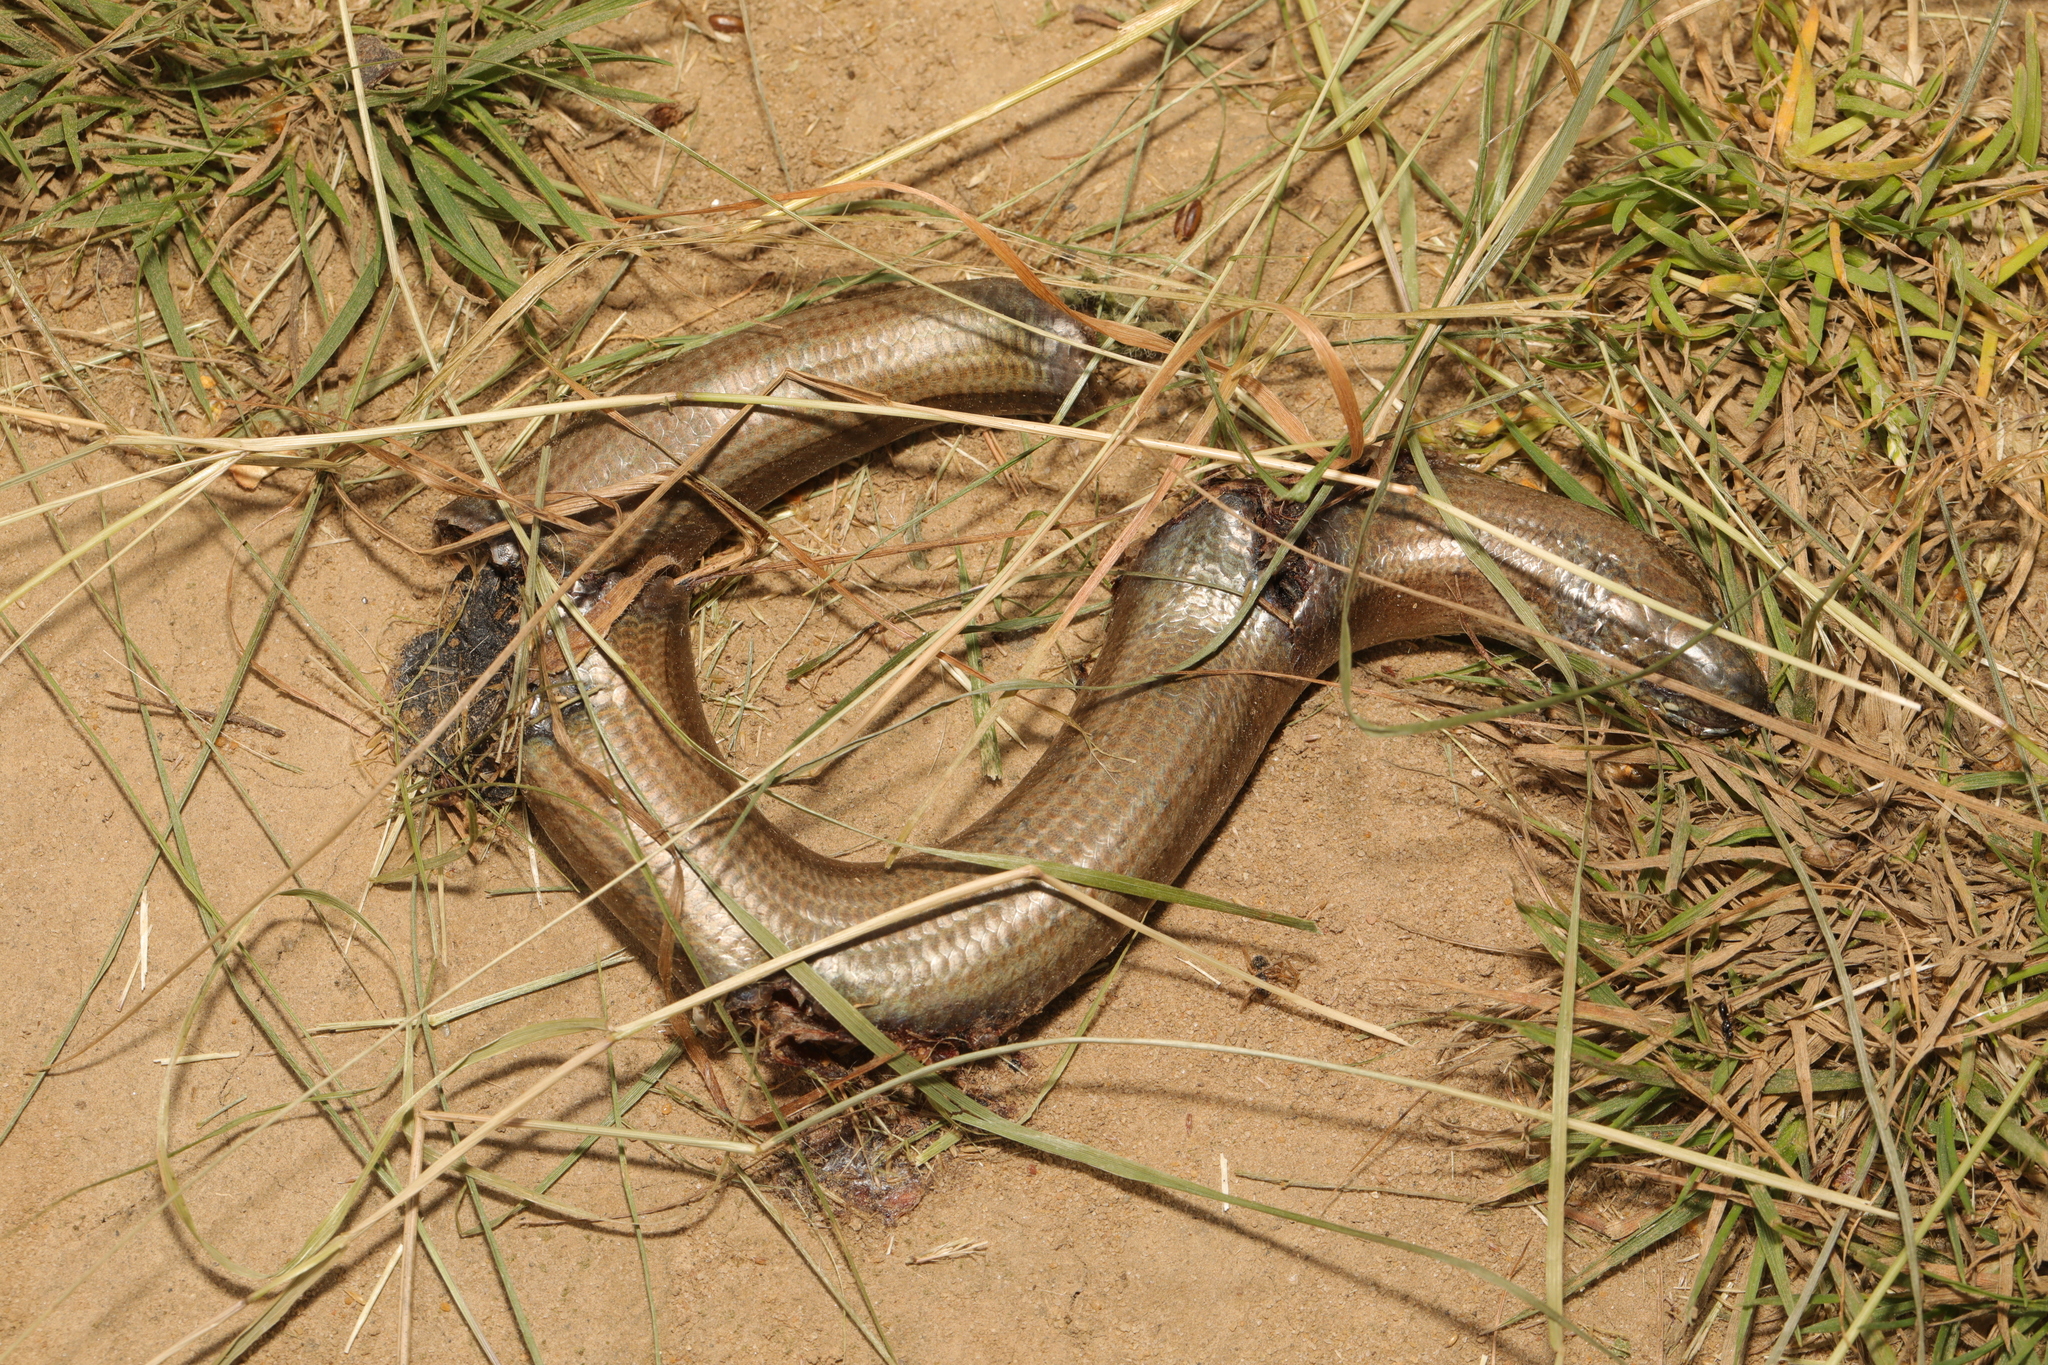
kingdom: Animalia
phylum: Chordata
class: Squamata
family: Anguidae
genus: Anguis
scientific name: Anguis fragilis
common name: Slow worm
